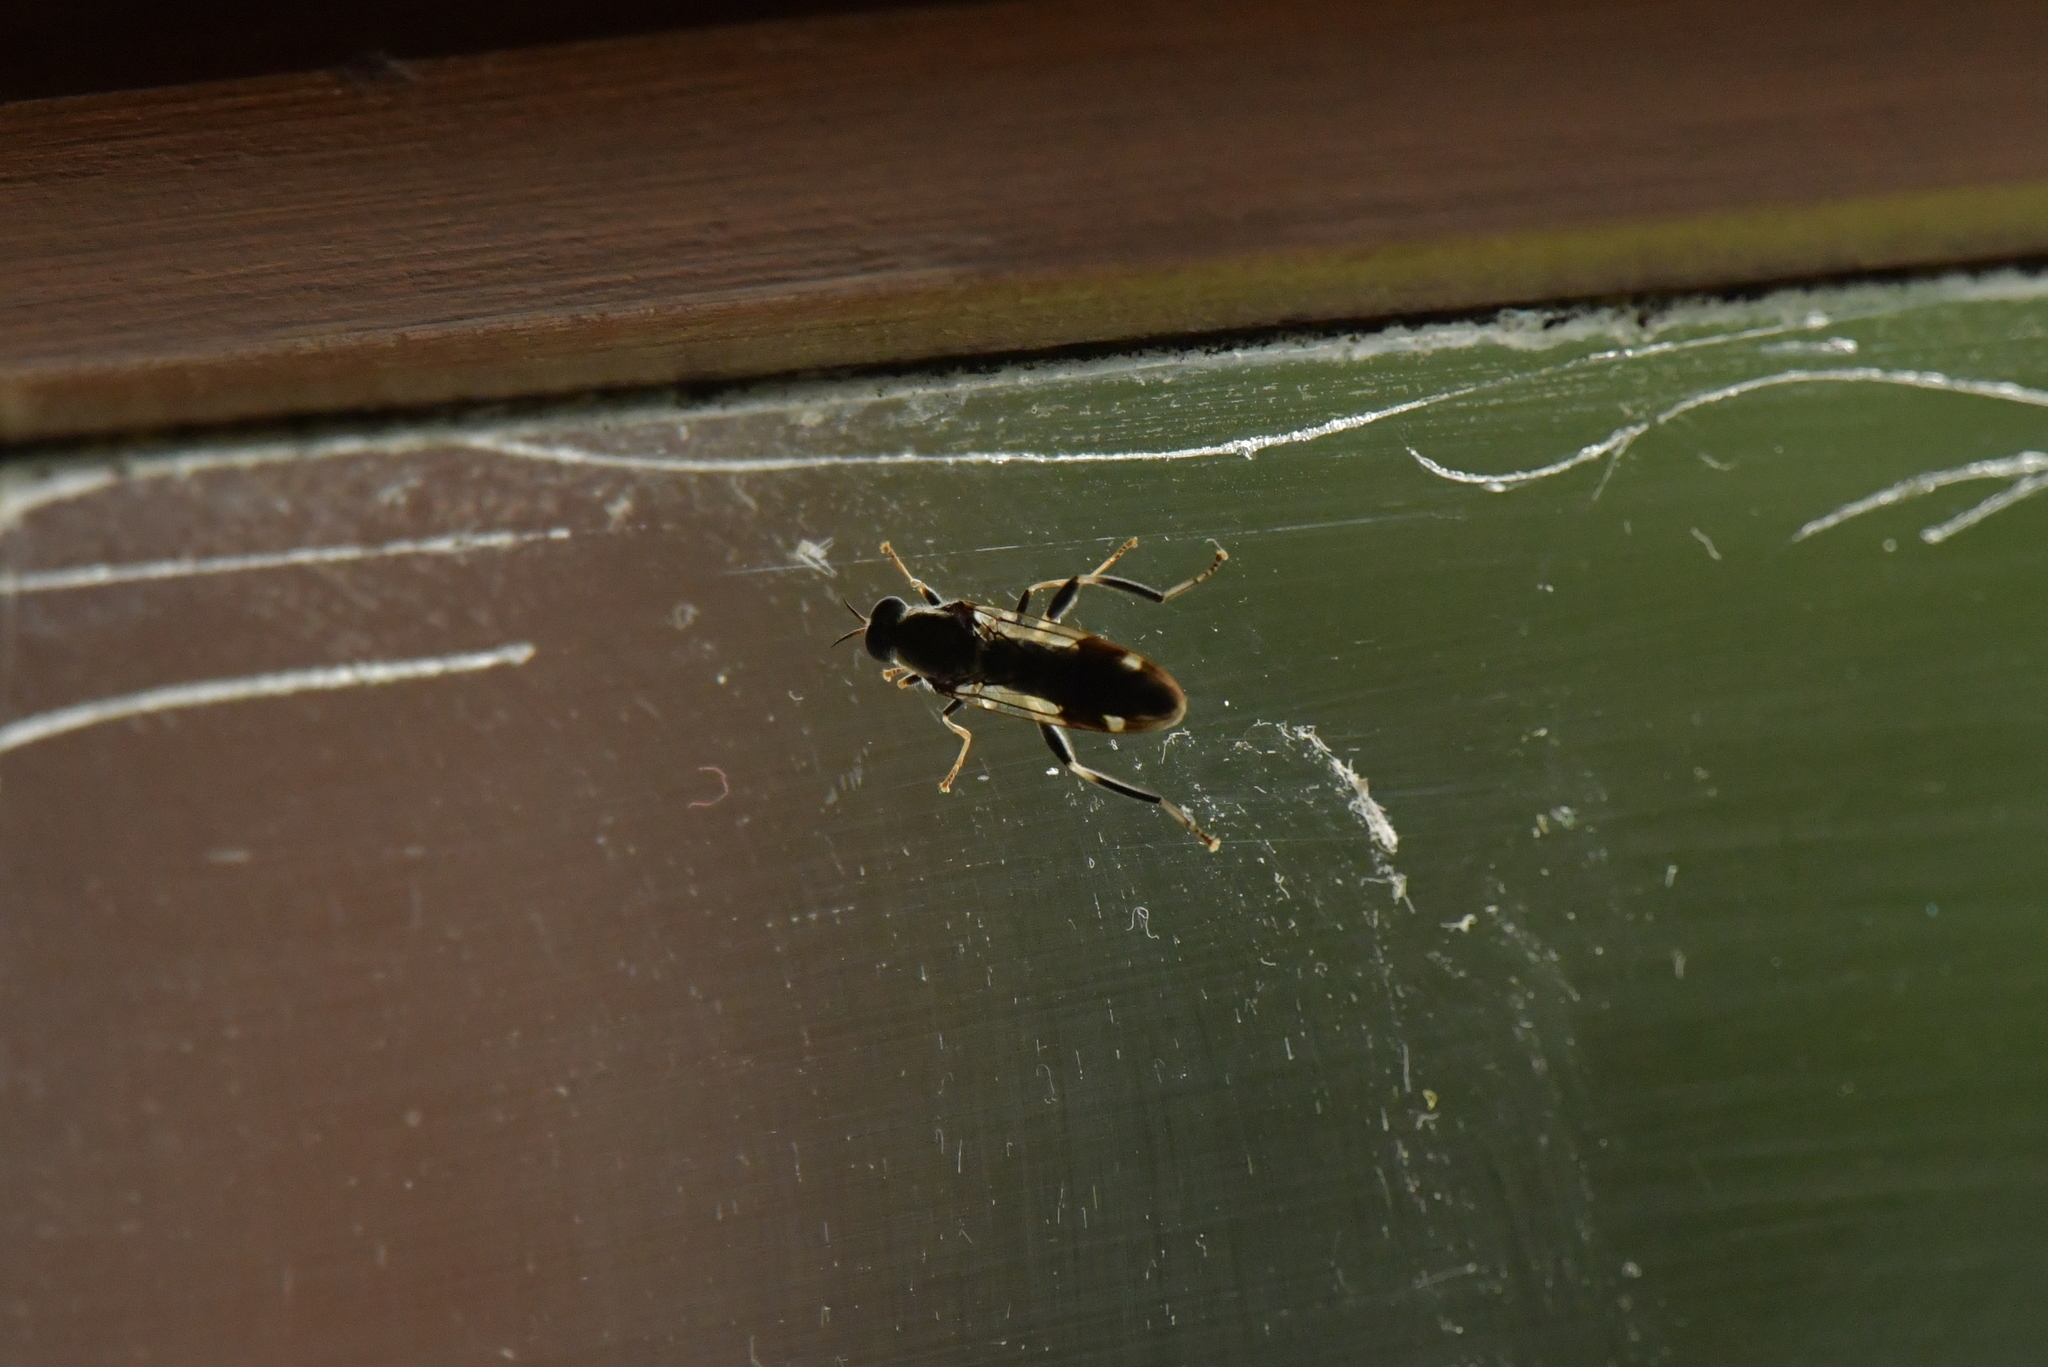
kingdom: Animalia
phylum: Arthropoda
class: Insecta
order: Diptera
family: Stratiomyidae
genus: Exaireta
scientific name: Exaireta spinigera
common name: Blue soldier fly
